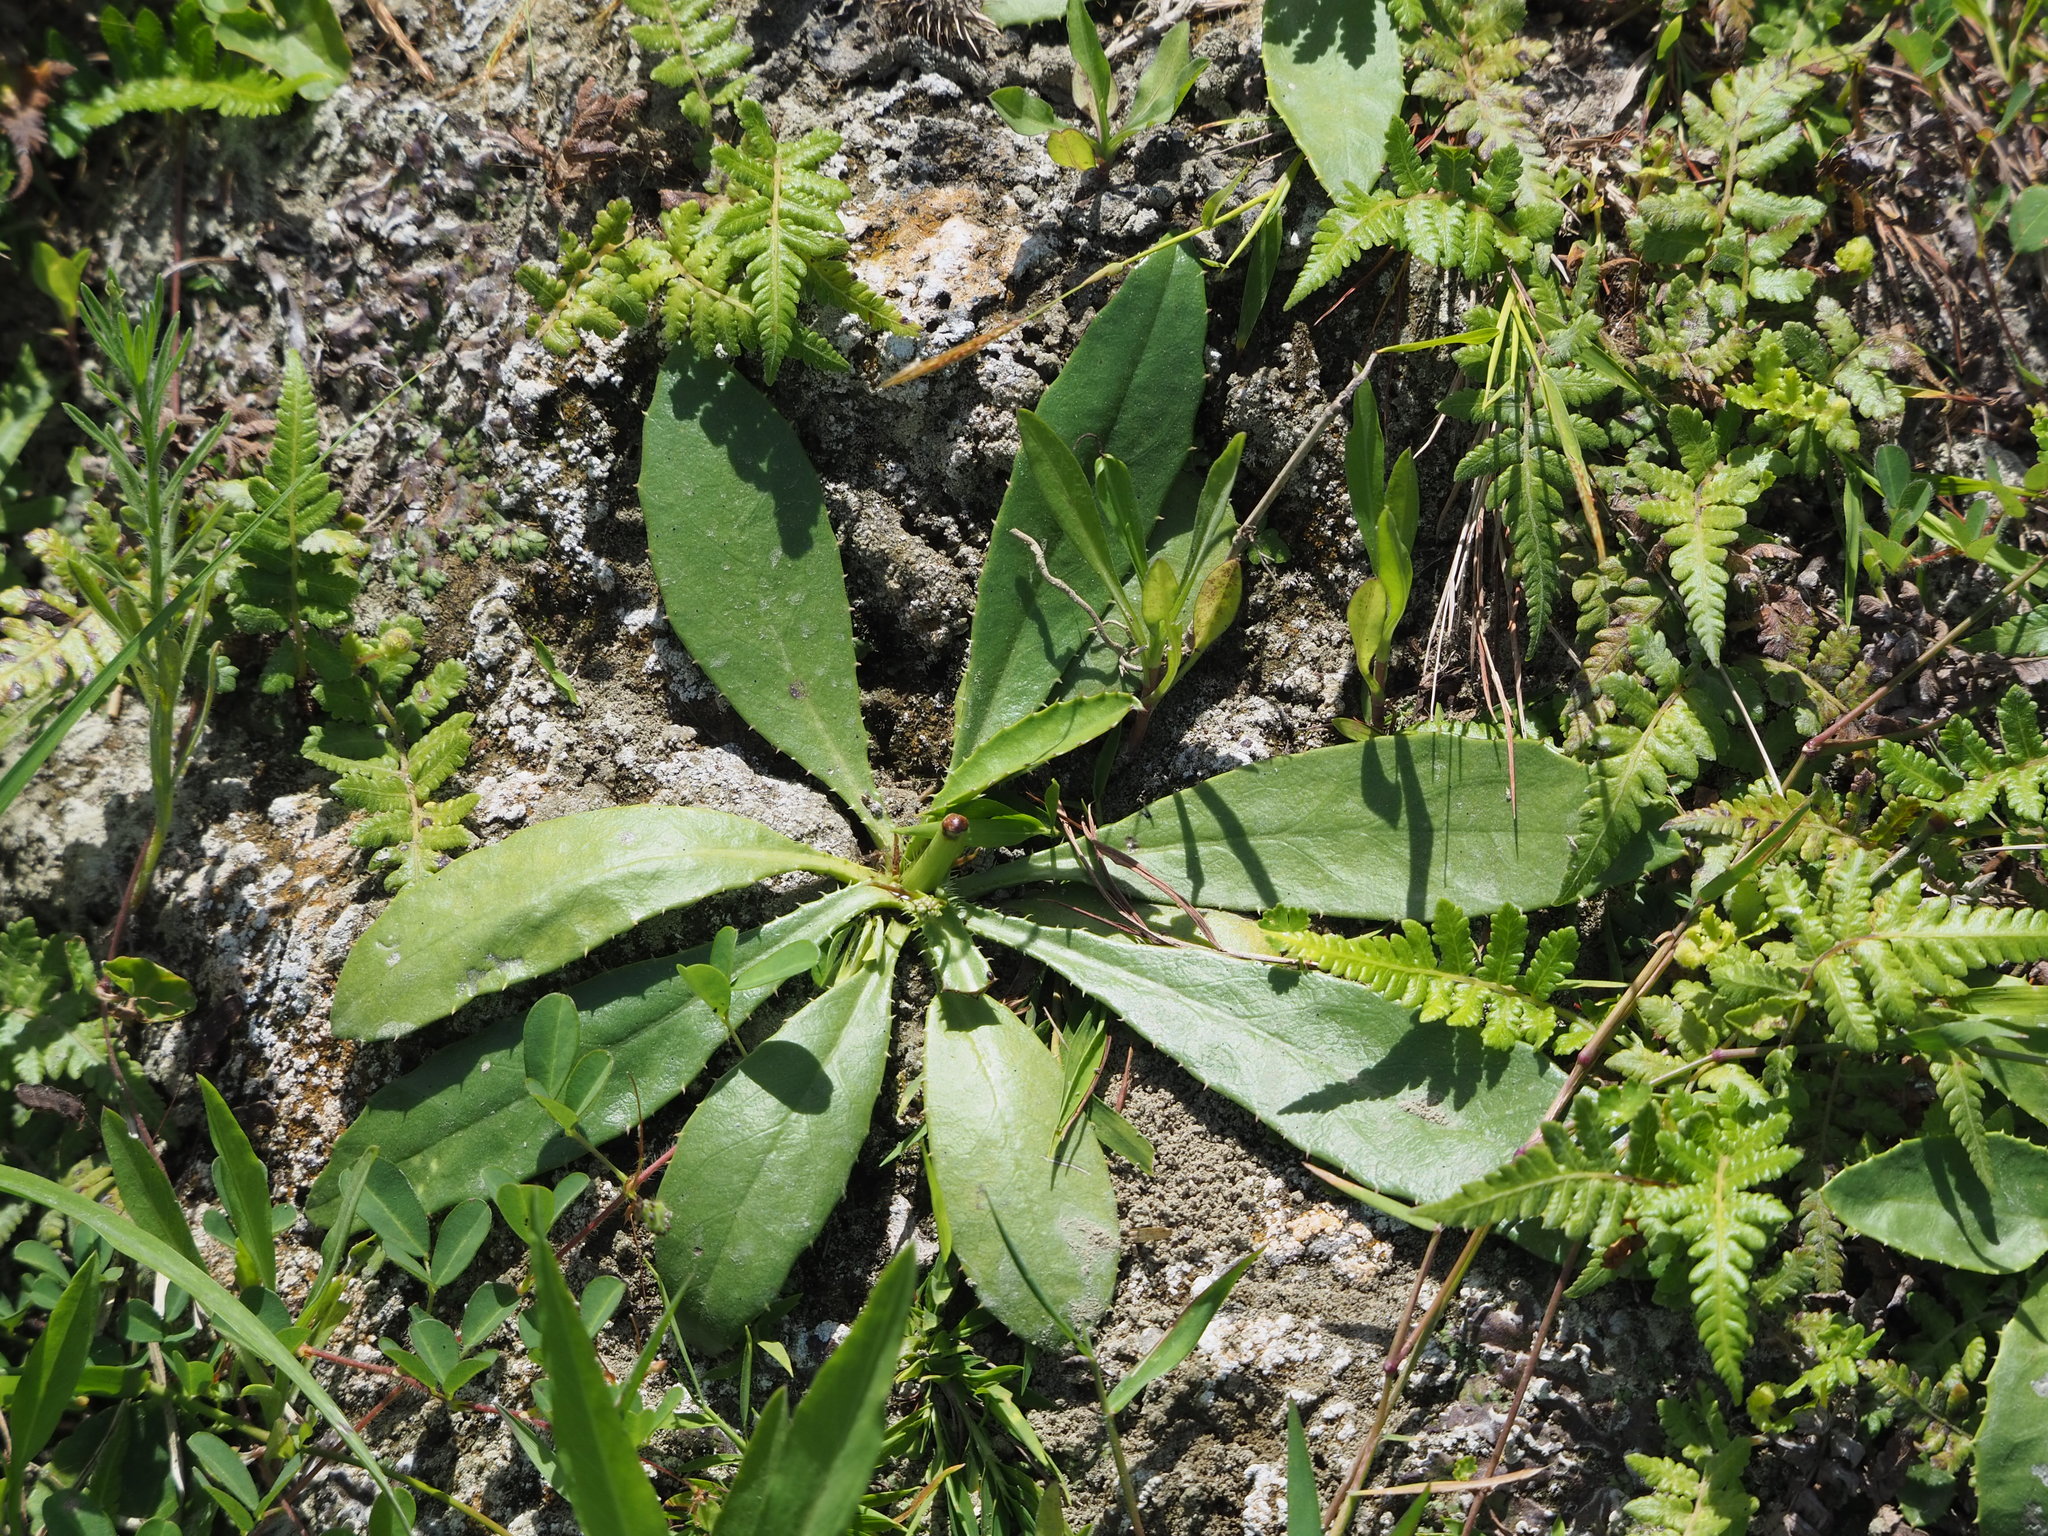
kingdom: Plantae
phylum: Tracheophyta
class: Magnoliopsida
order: Asterales
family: Asteraceae
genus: Ixeridium
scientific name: Ixeridium laevigatum
